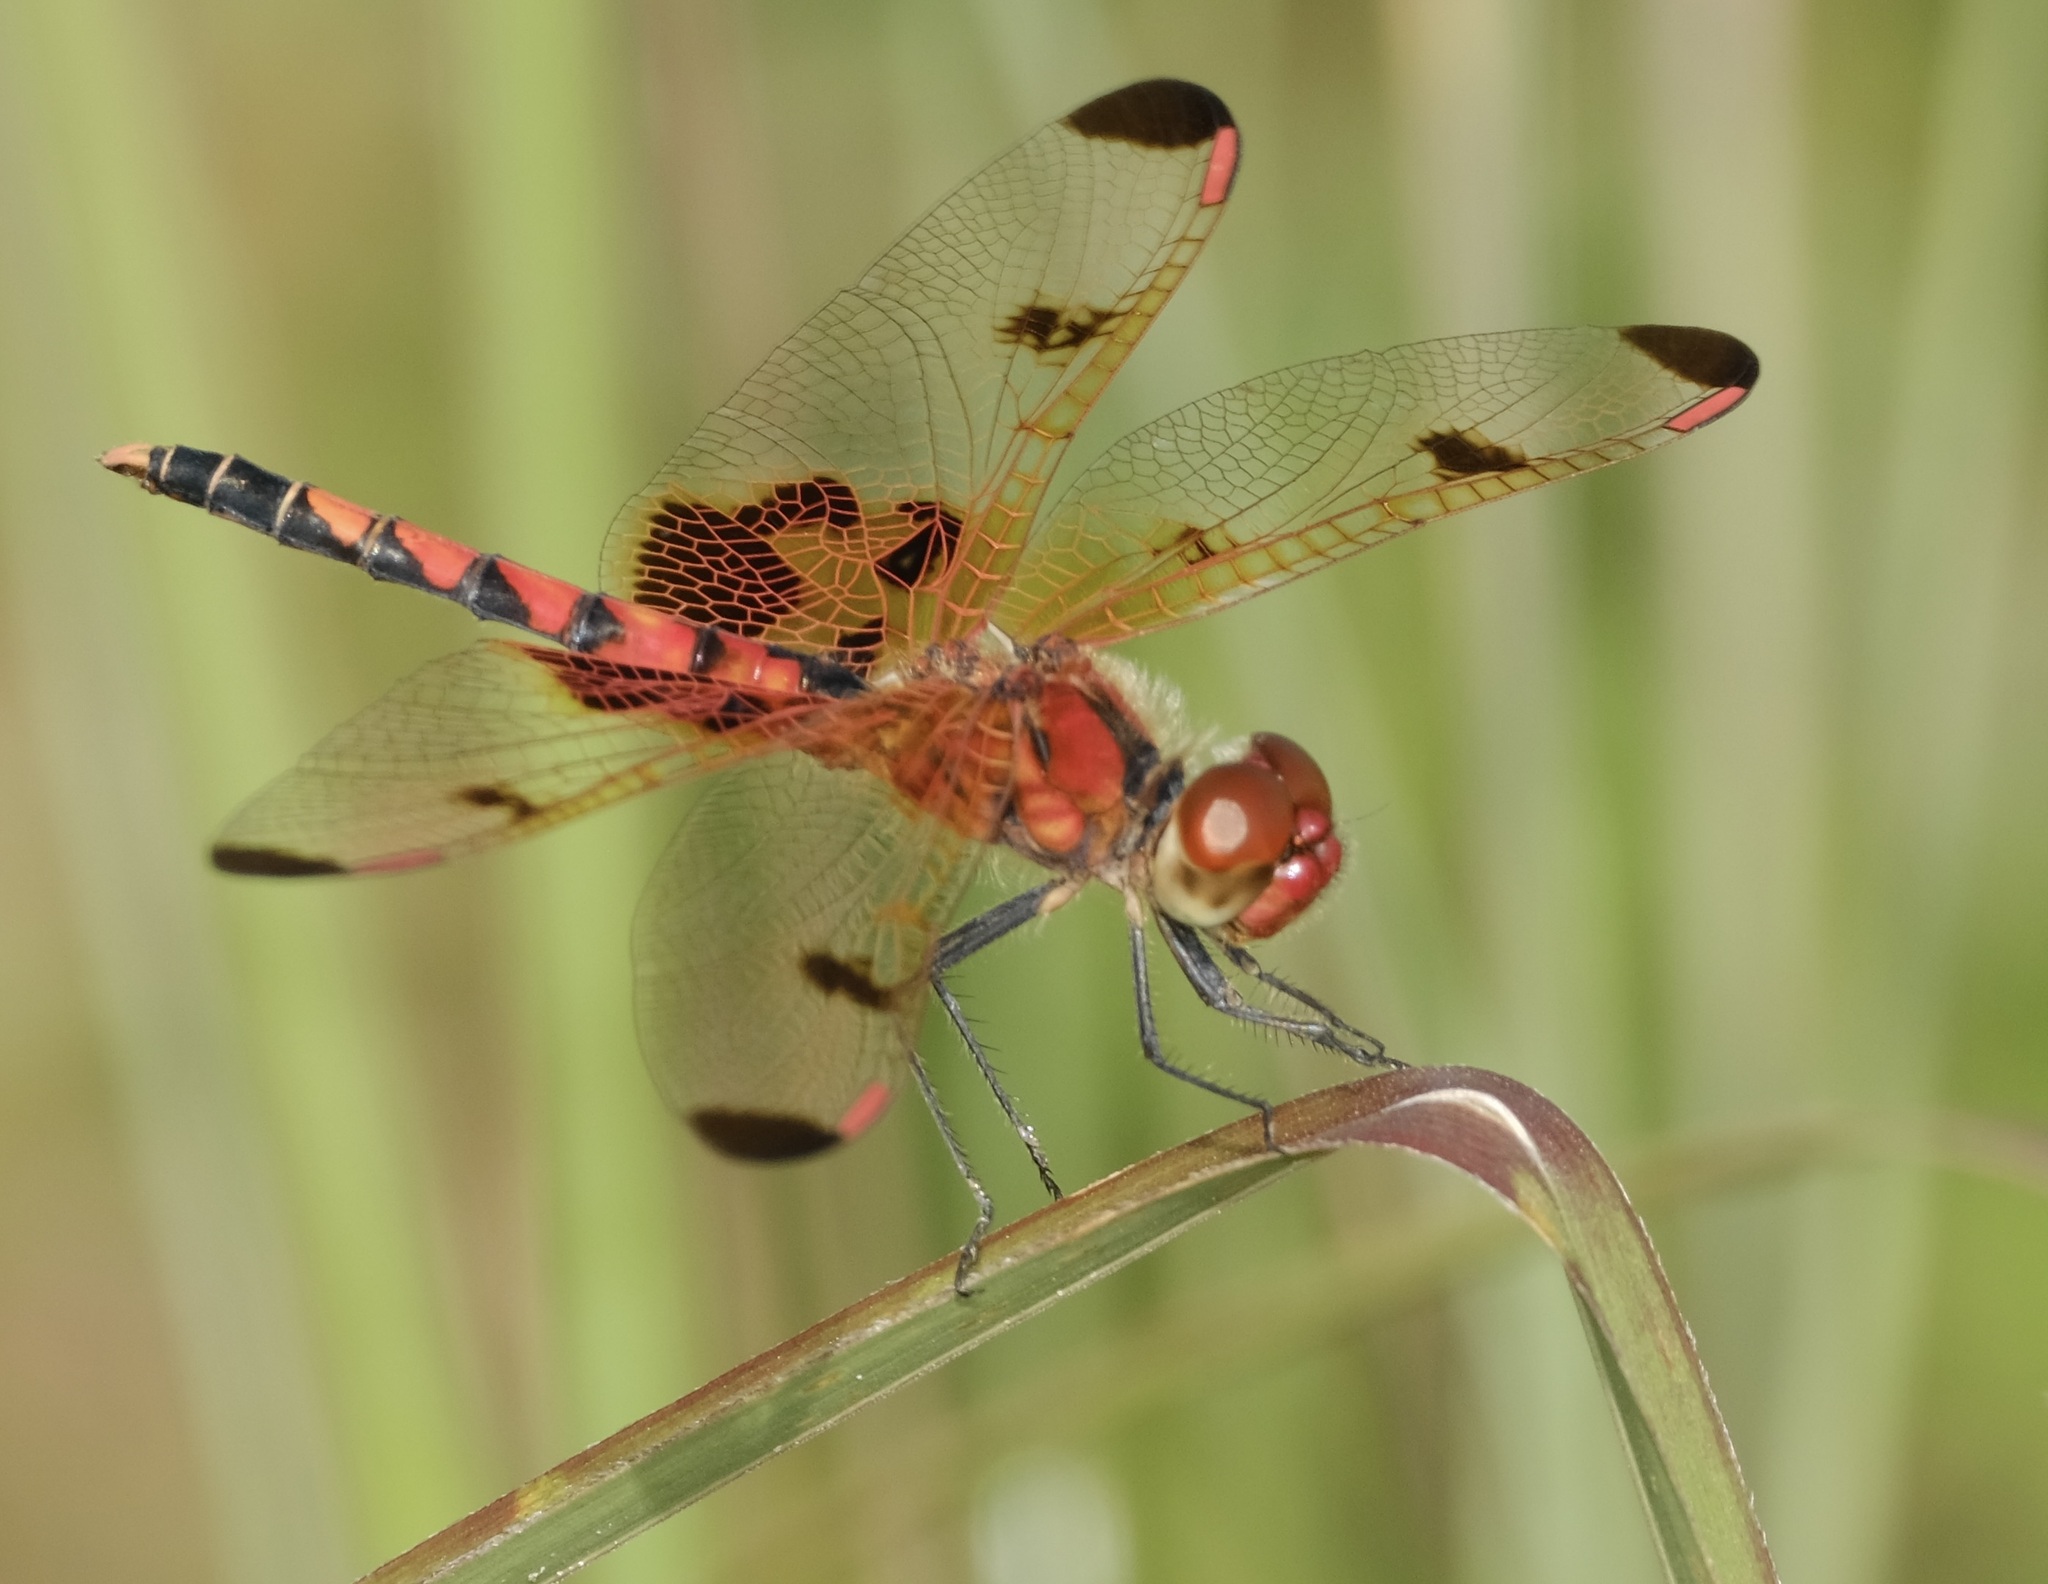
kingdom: Animalia
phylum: Arthropoda
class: Insecta
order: Odonata
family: Libellulidae
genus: Celithemis
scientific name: Celithemis elisa
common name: Calico pennant
